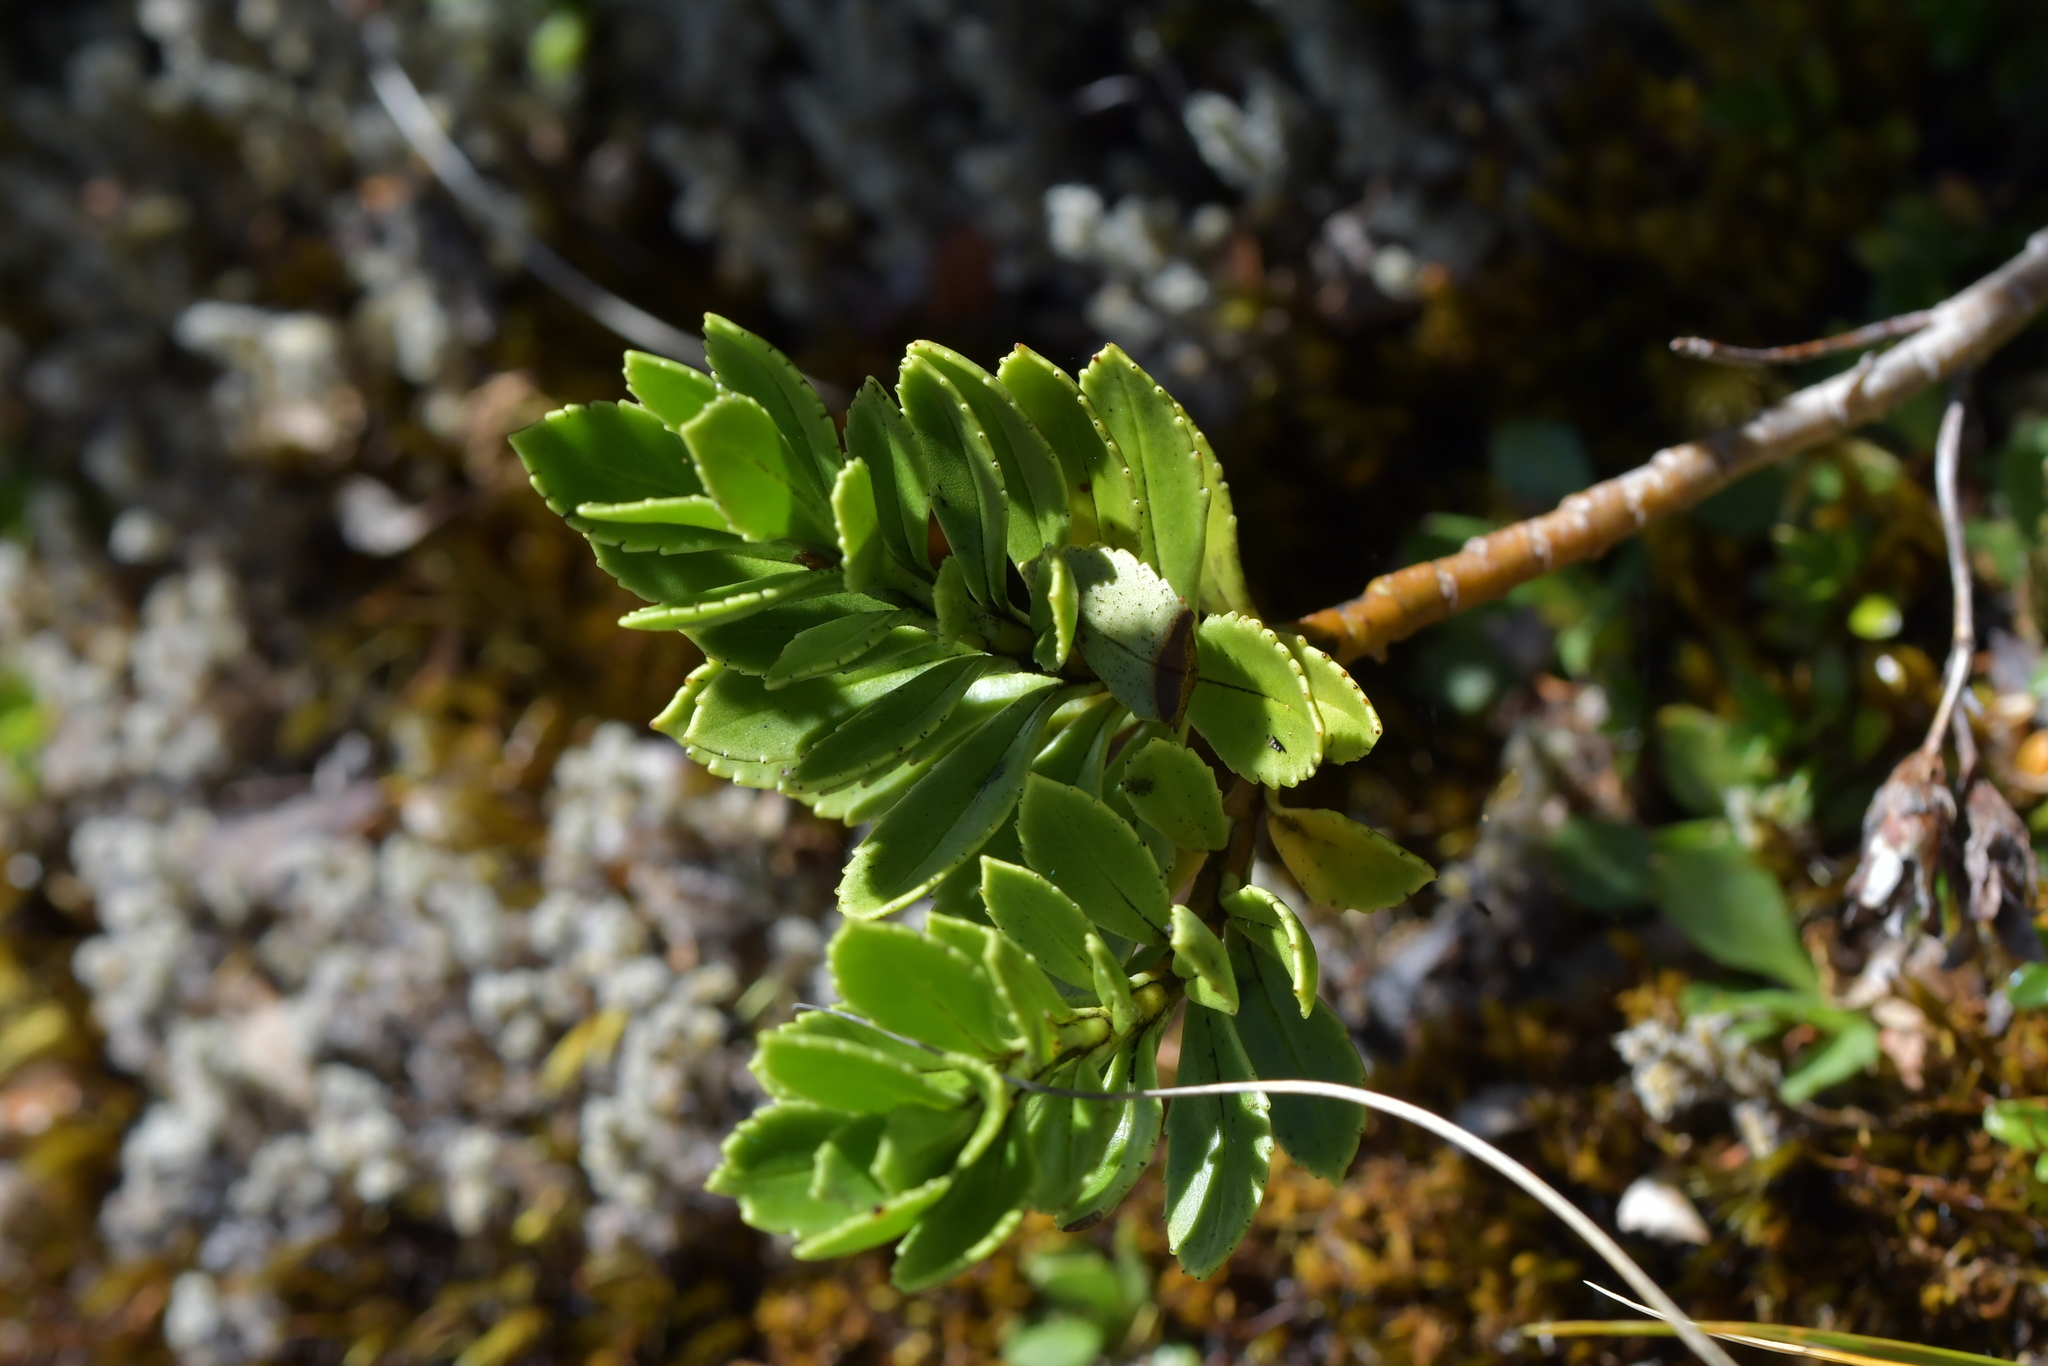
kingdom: Plantae
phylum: Tracheophyta
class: Magnoliopsida
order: Lamiales
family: Plantaginaceae
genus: Veronica
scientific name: Veronica macrantha
